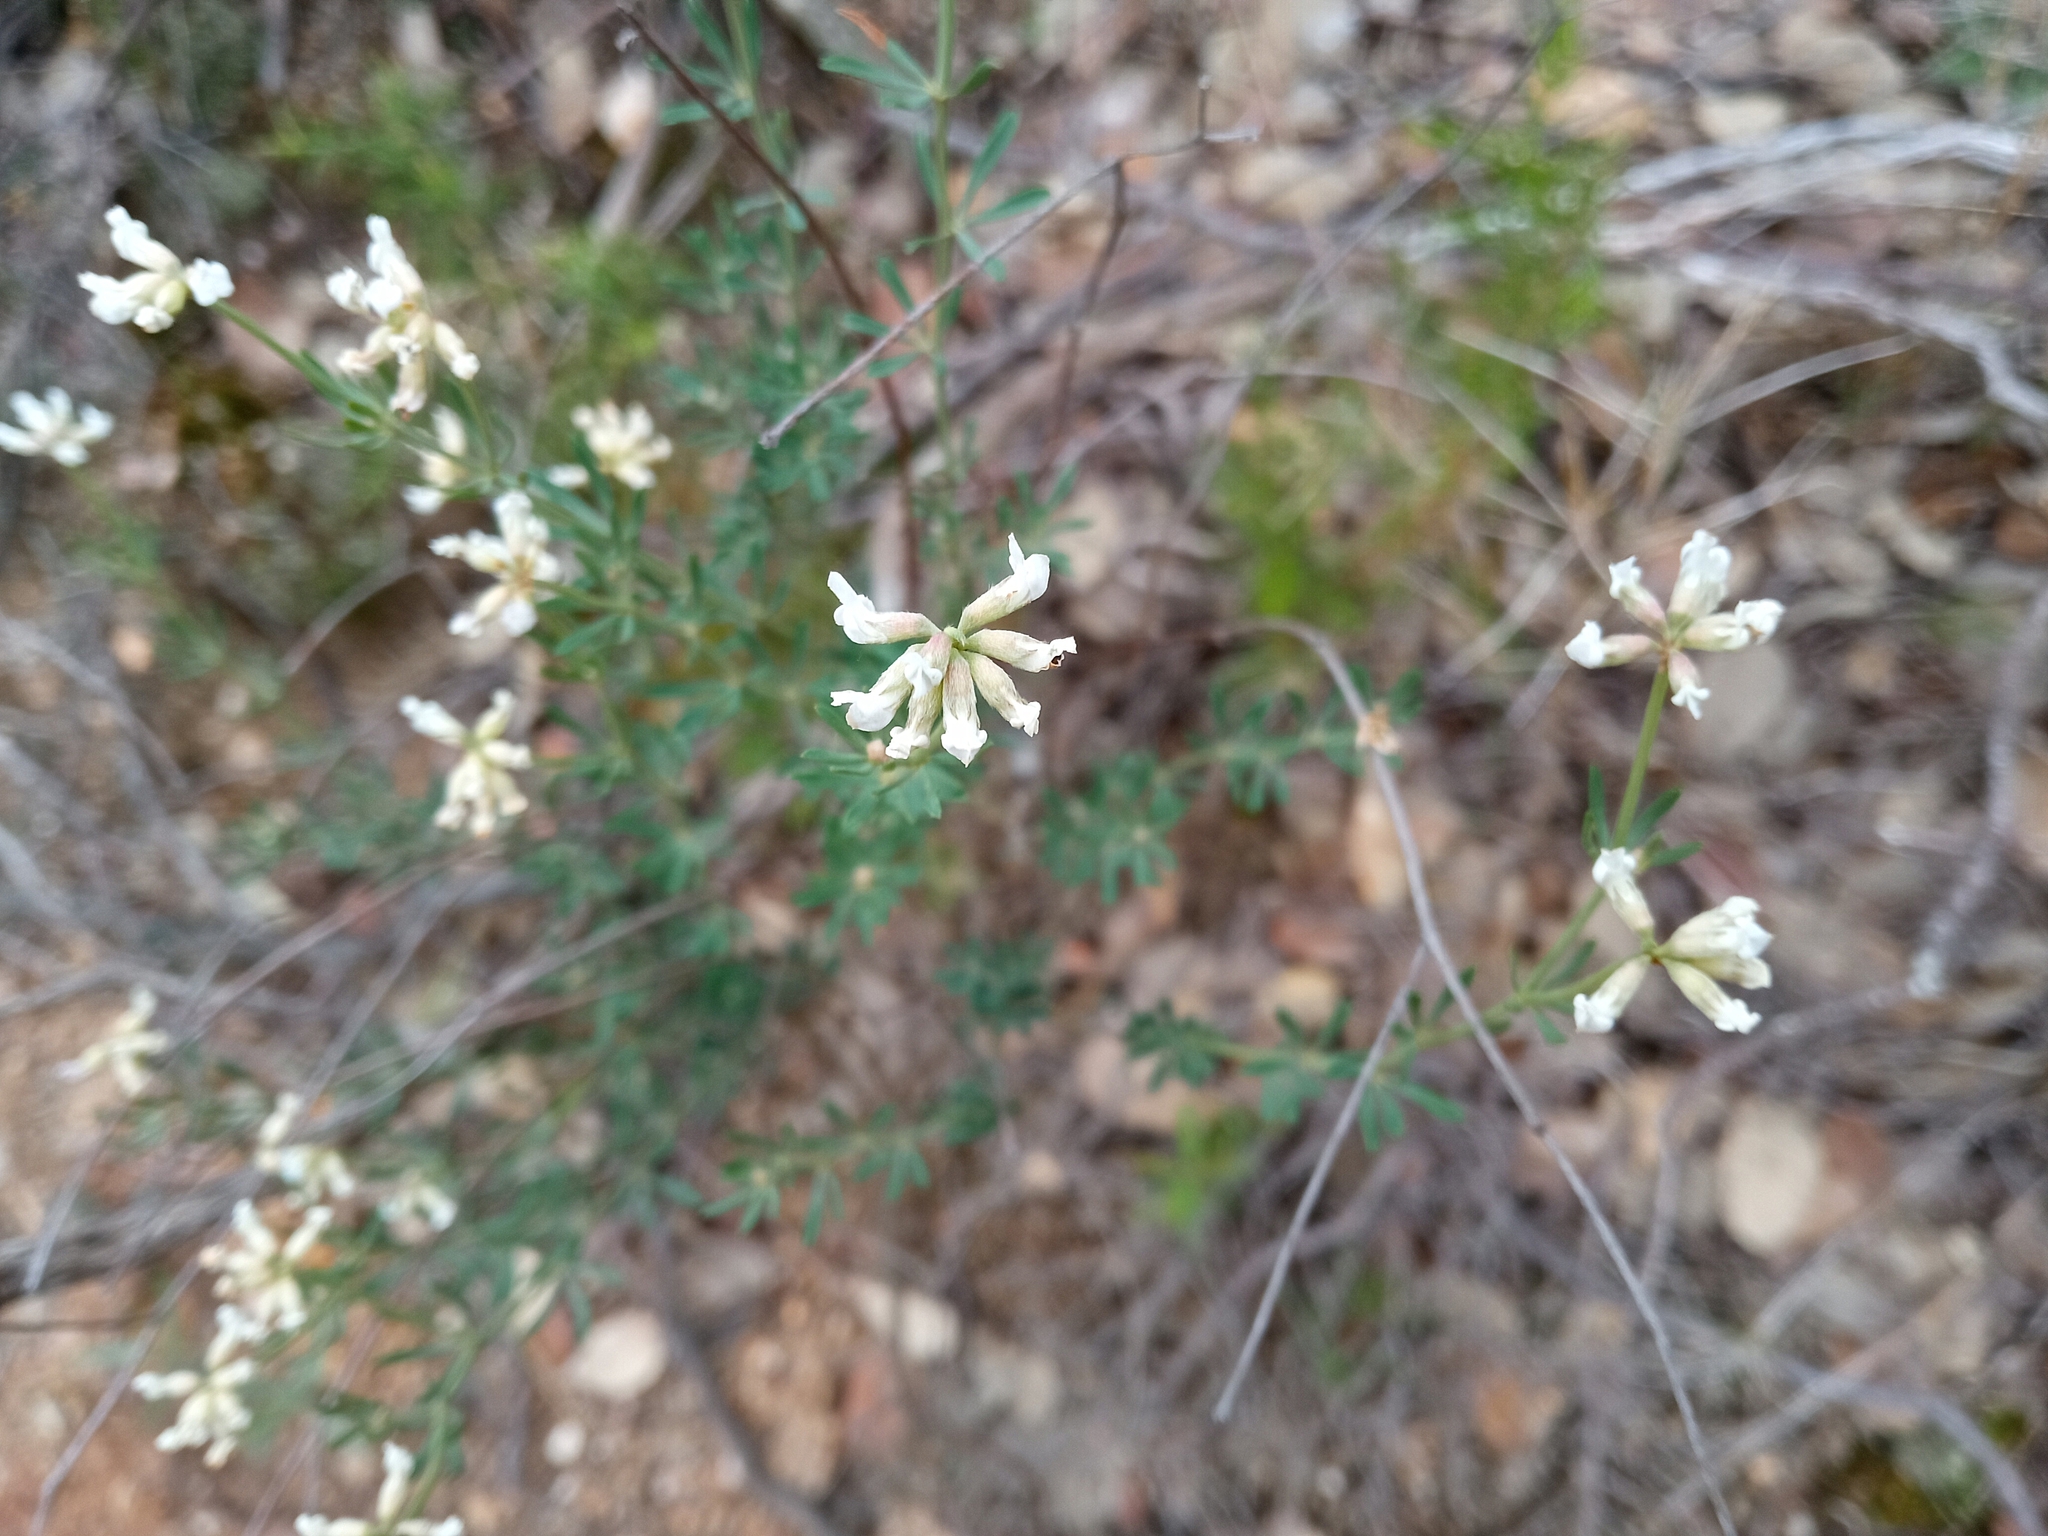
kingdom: Plantae
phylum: Tracheophyta
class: Magnoliopsida
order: Fabales
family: Fabaceae
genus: Lotus
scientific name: Lotus dorycnium
